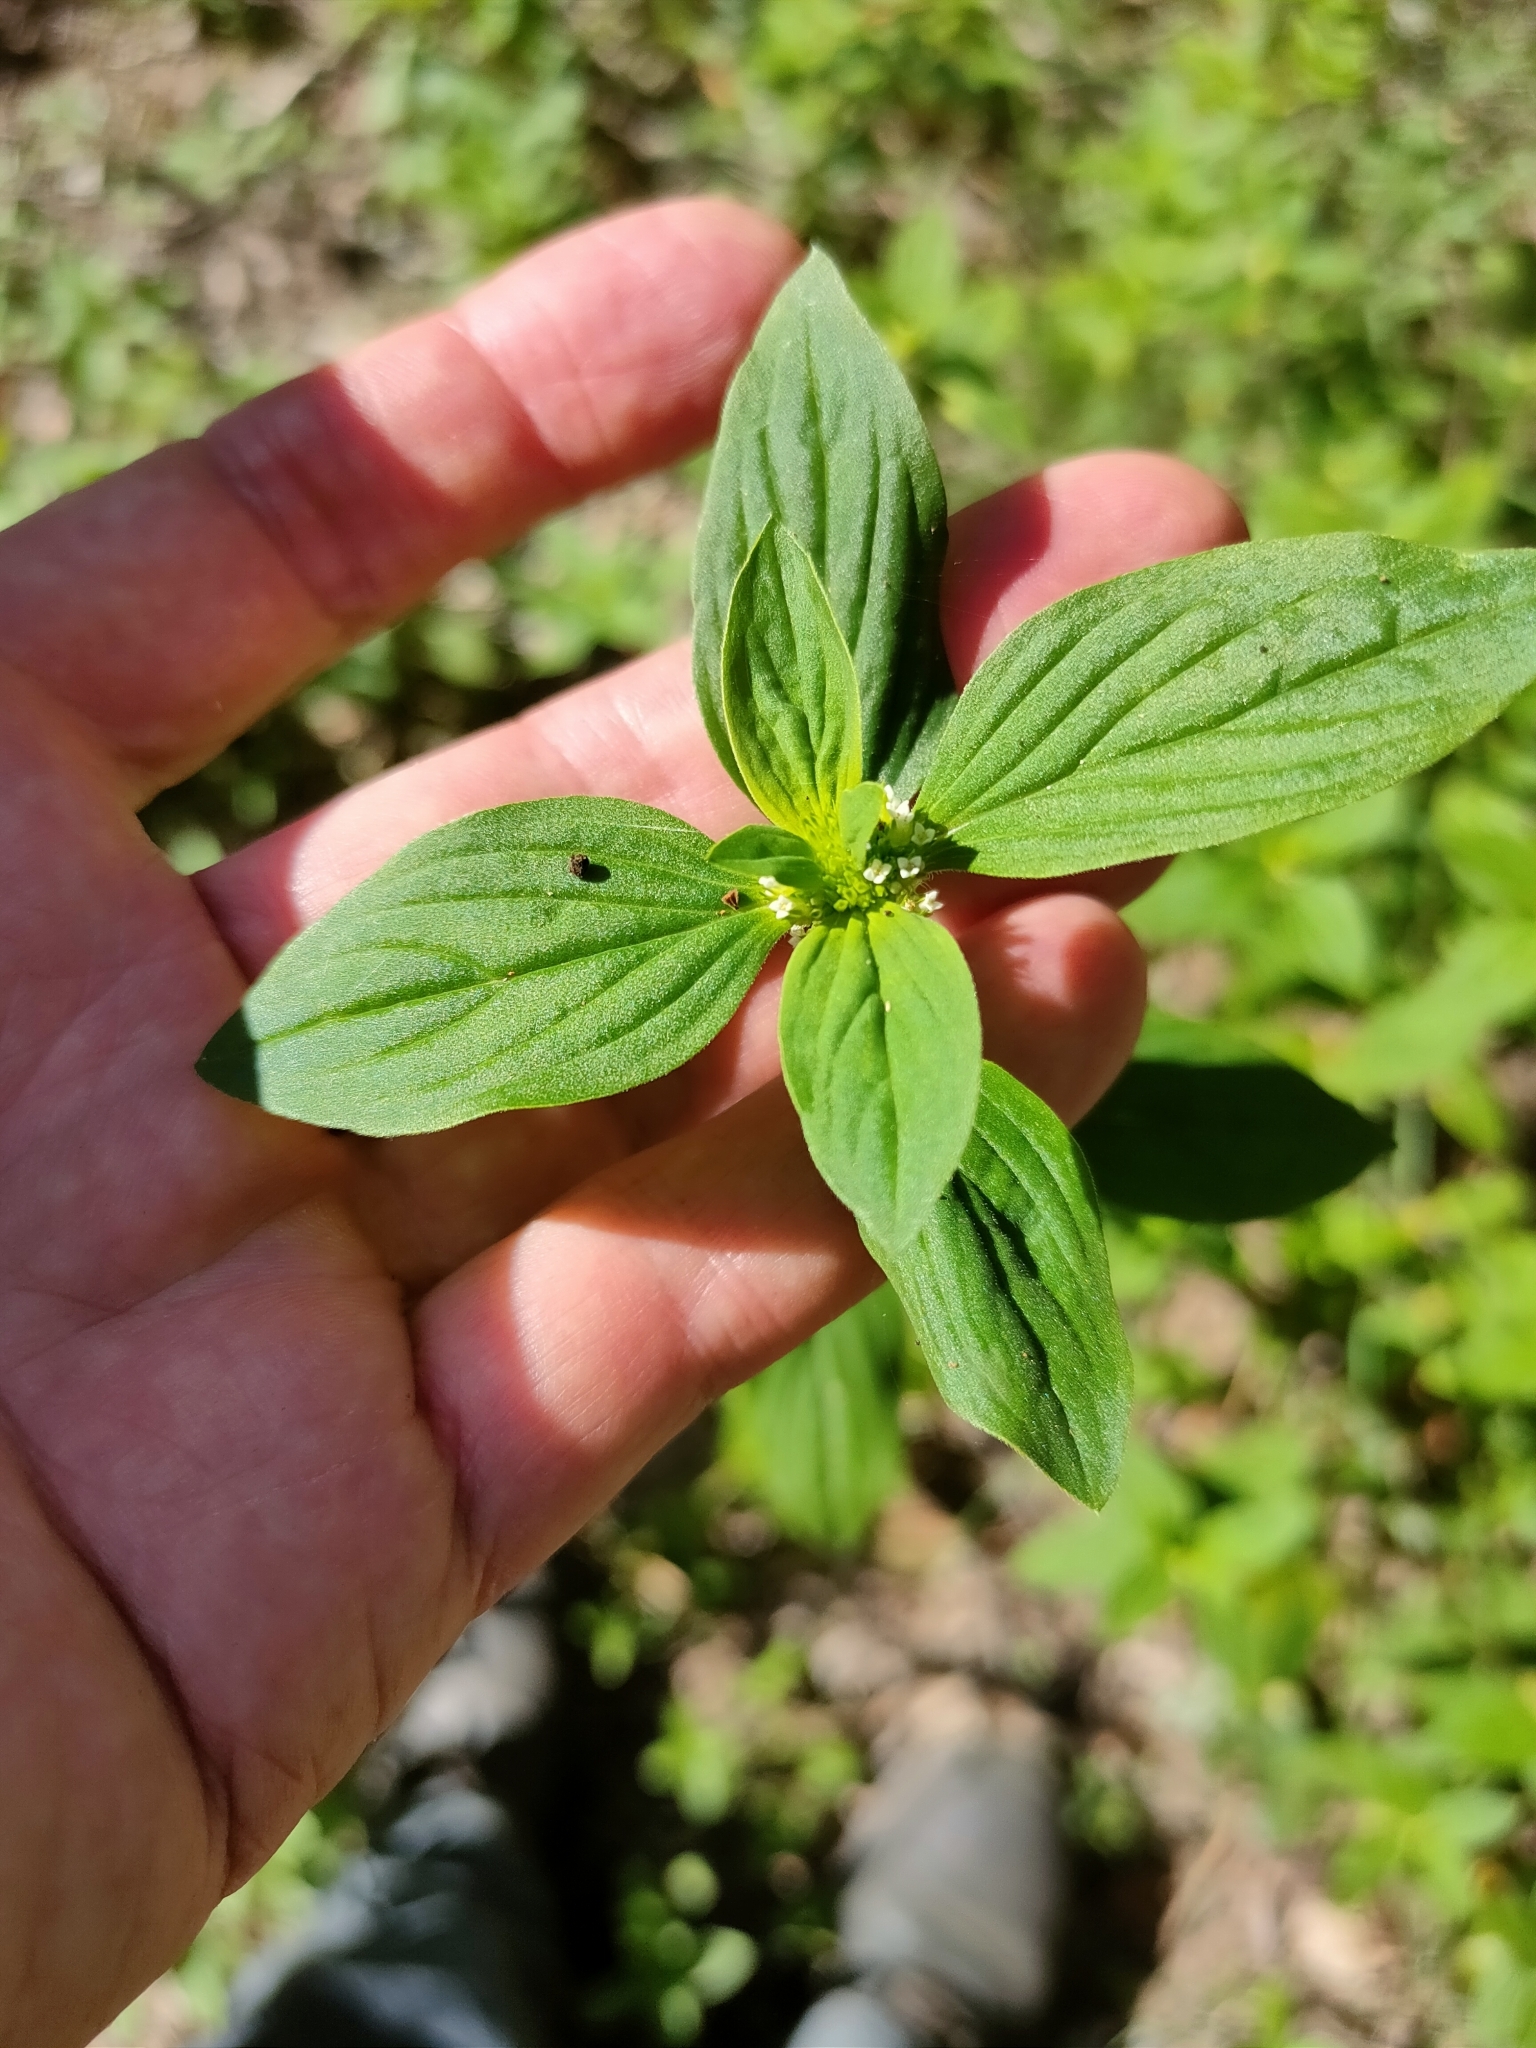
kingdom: Plantae
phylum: Tracheophyta
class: Magnoliopsida
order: Gentianales
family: Rubiaceae
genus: Mitracarpus
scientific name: Mitracarpus hirtus
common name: Tropical girdlepod
